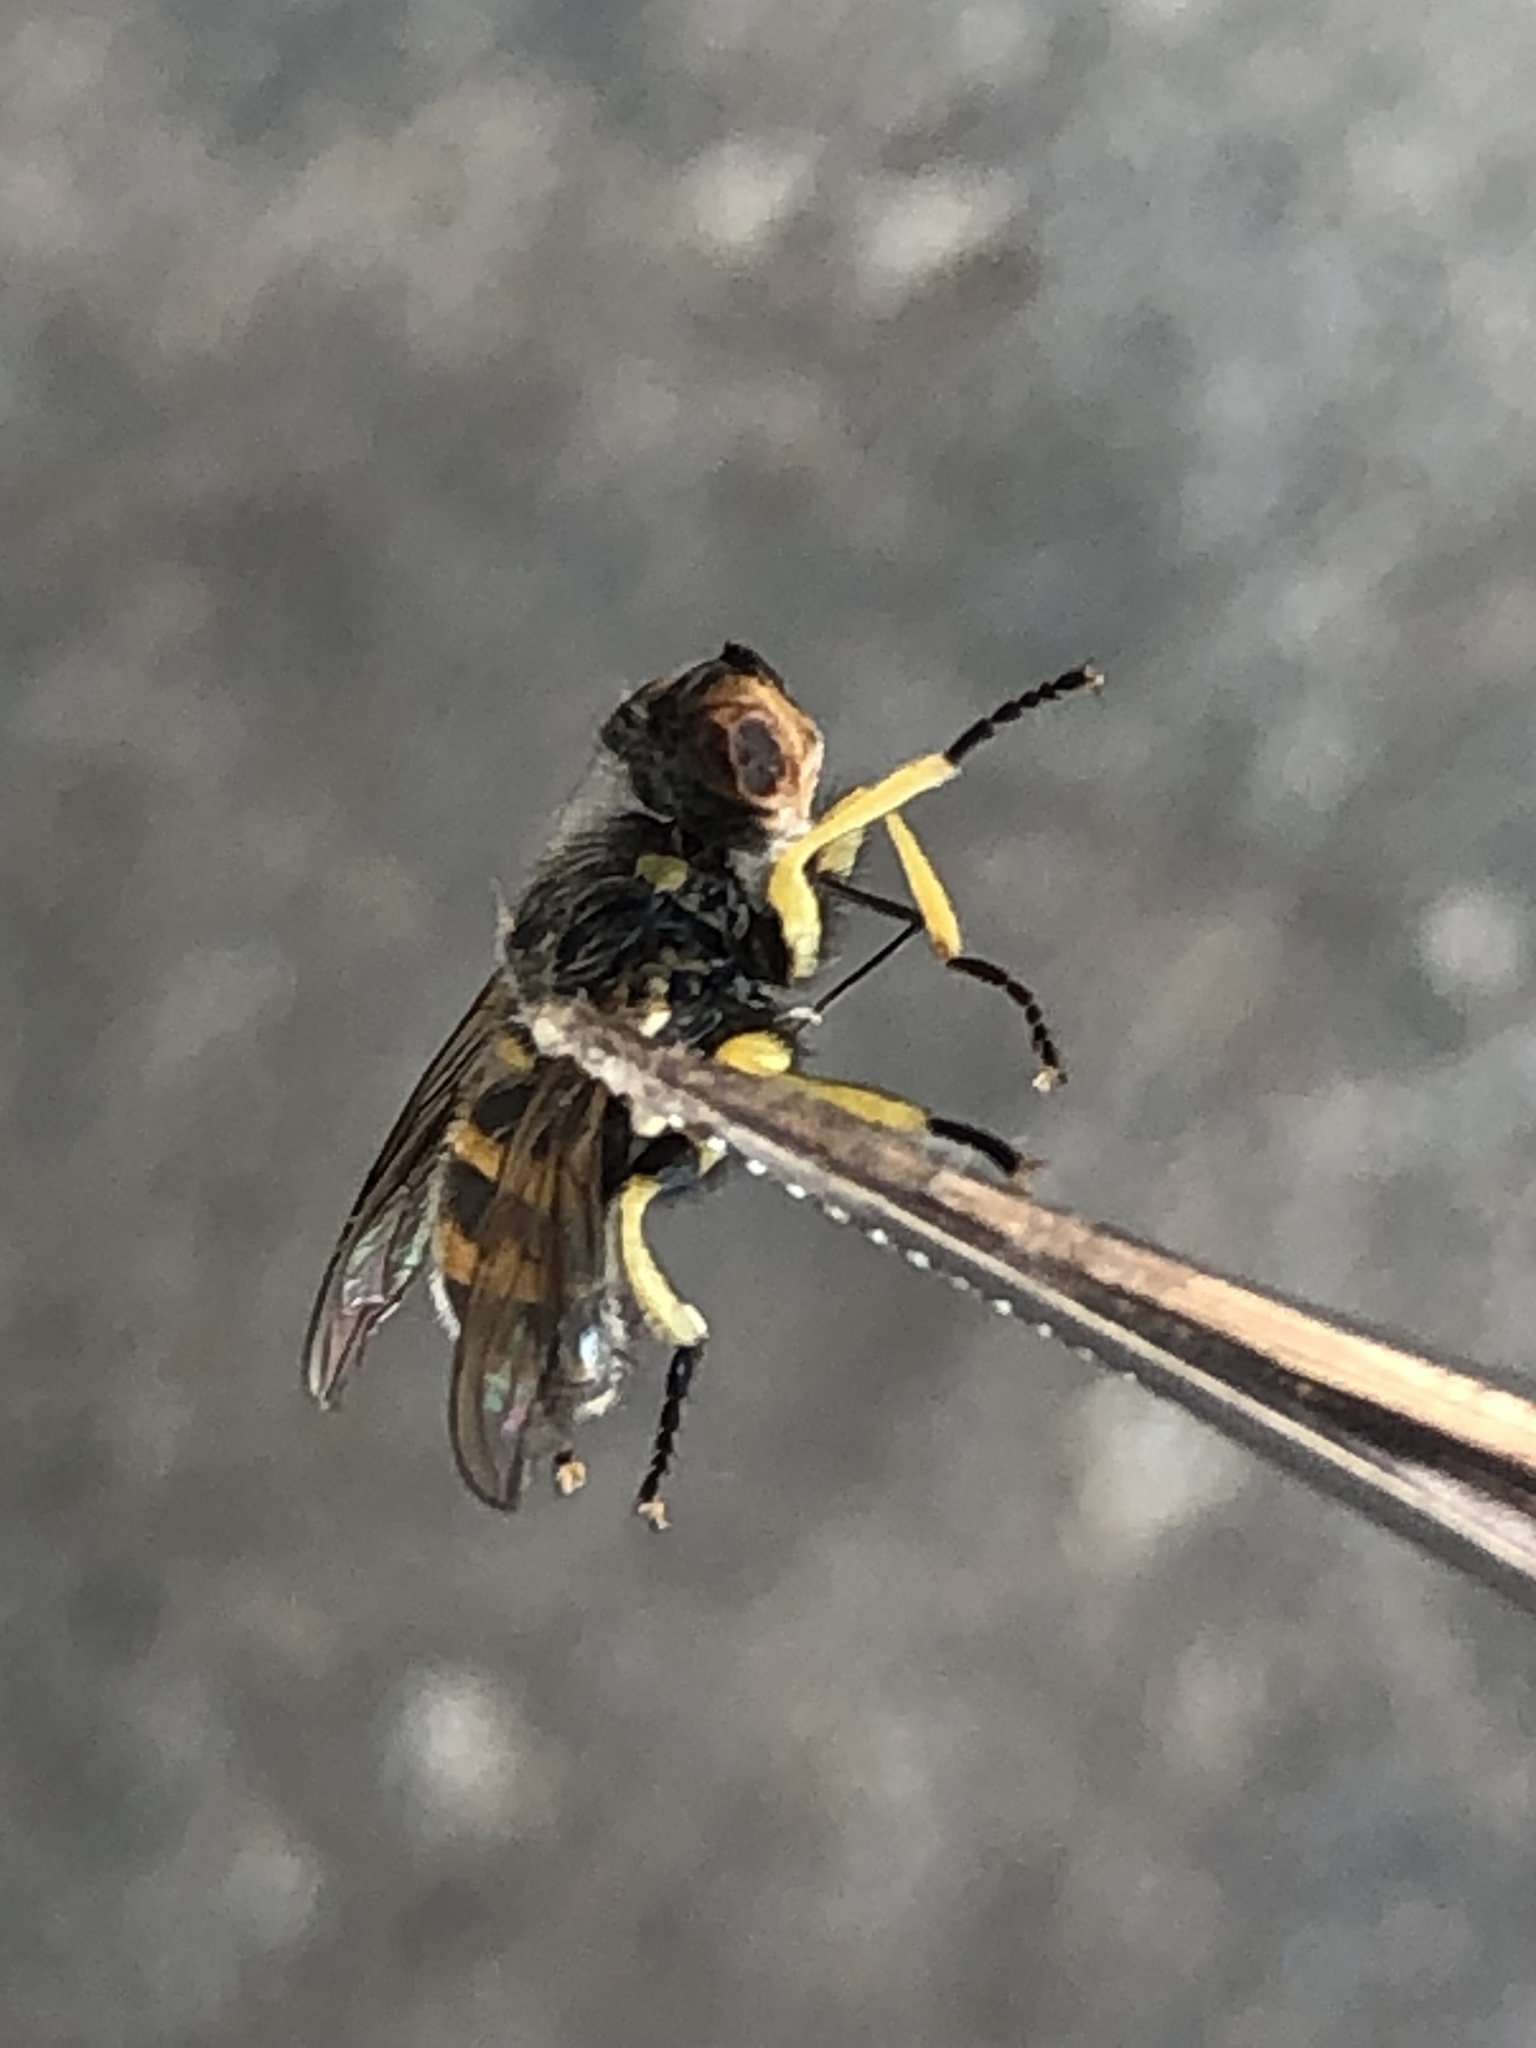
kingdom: Animalia
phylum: Arthropoda
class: Insecta
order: Diptera
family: Conopidae
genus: Dalmannia
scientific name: Dalmannia heterotricha
